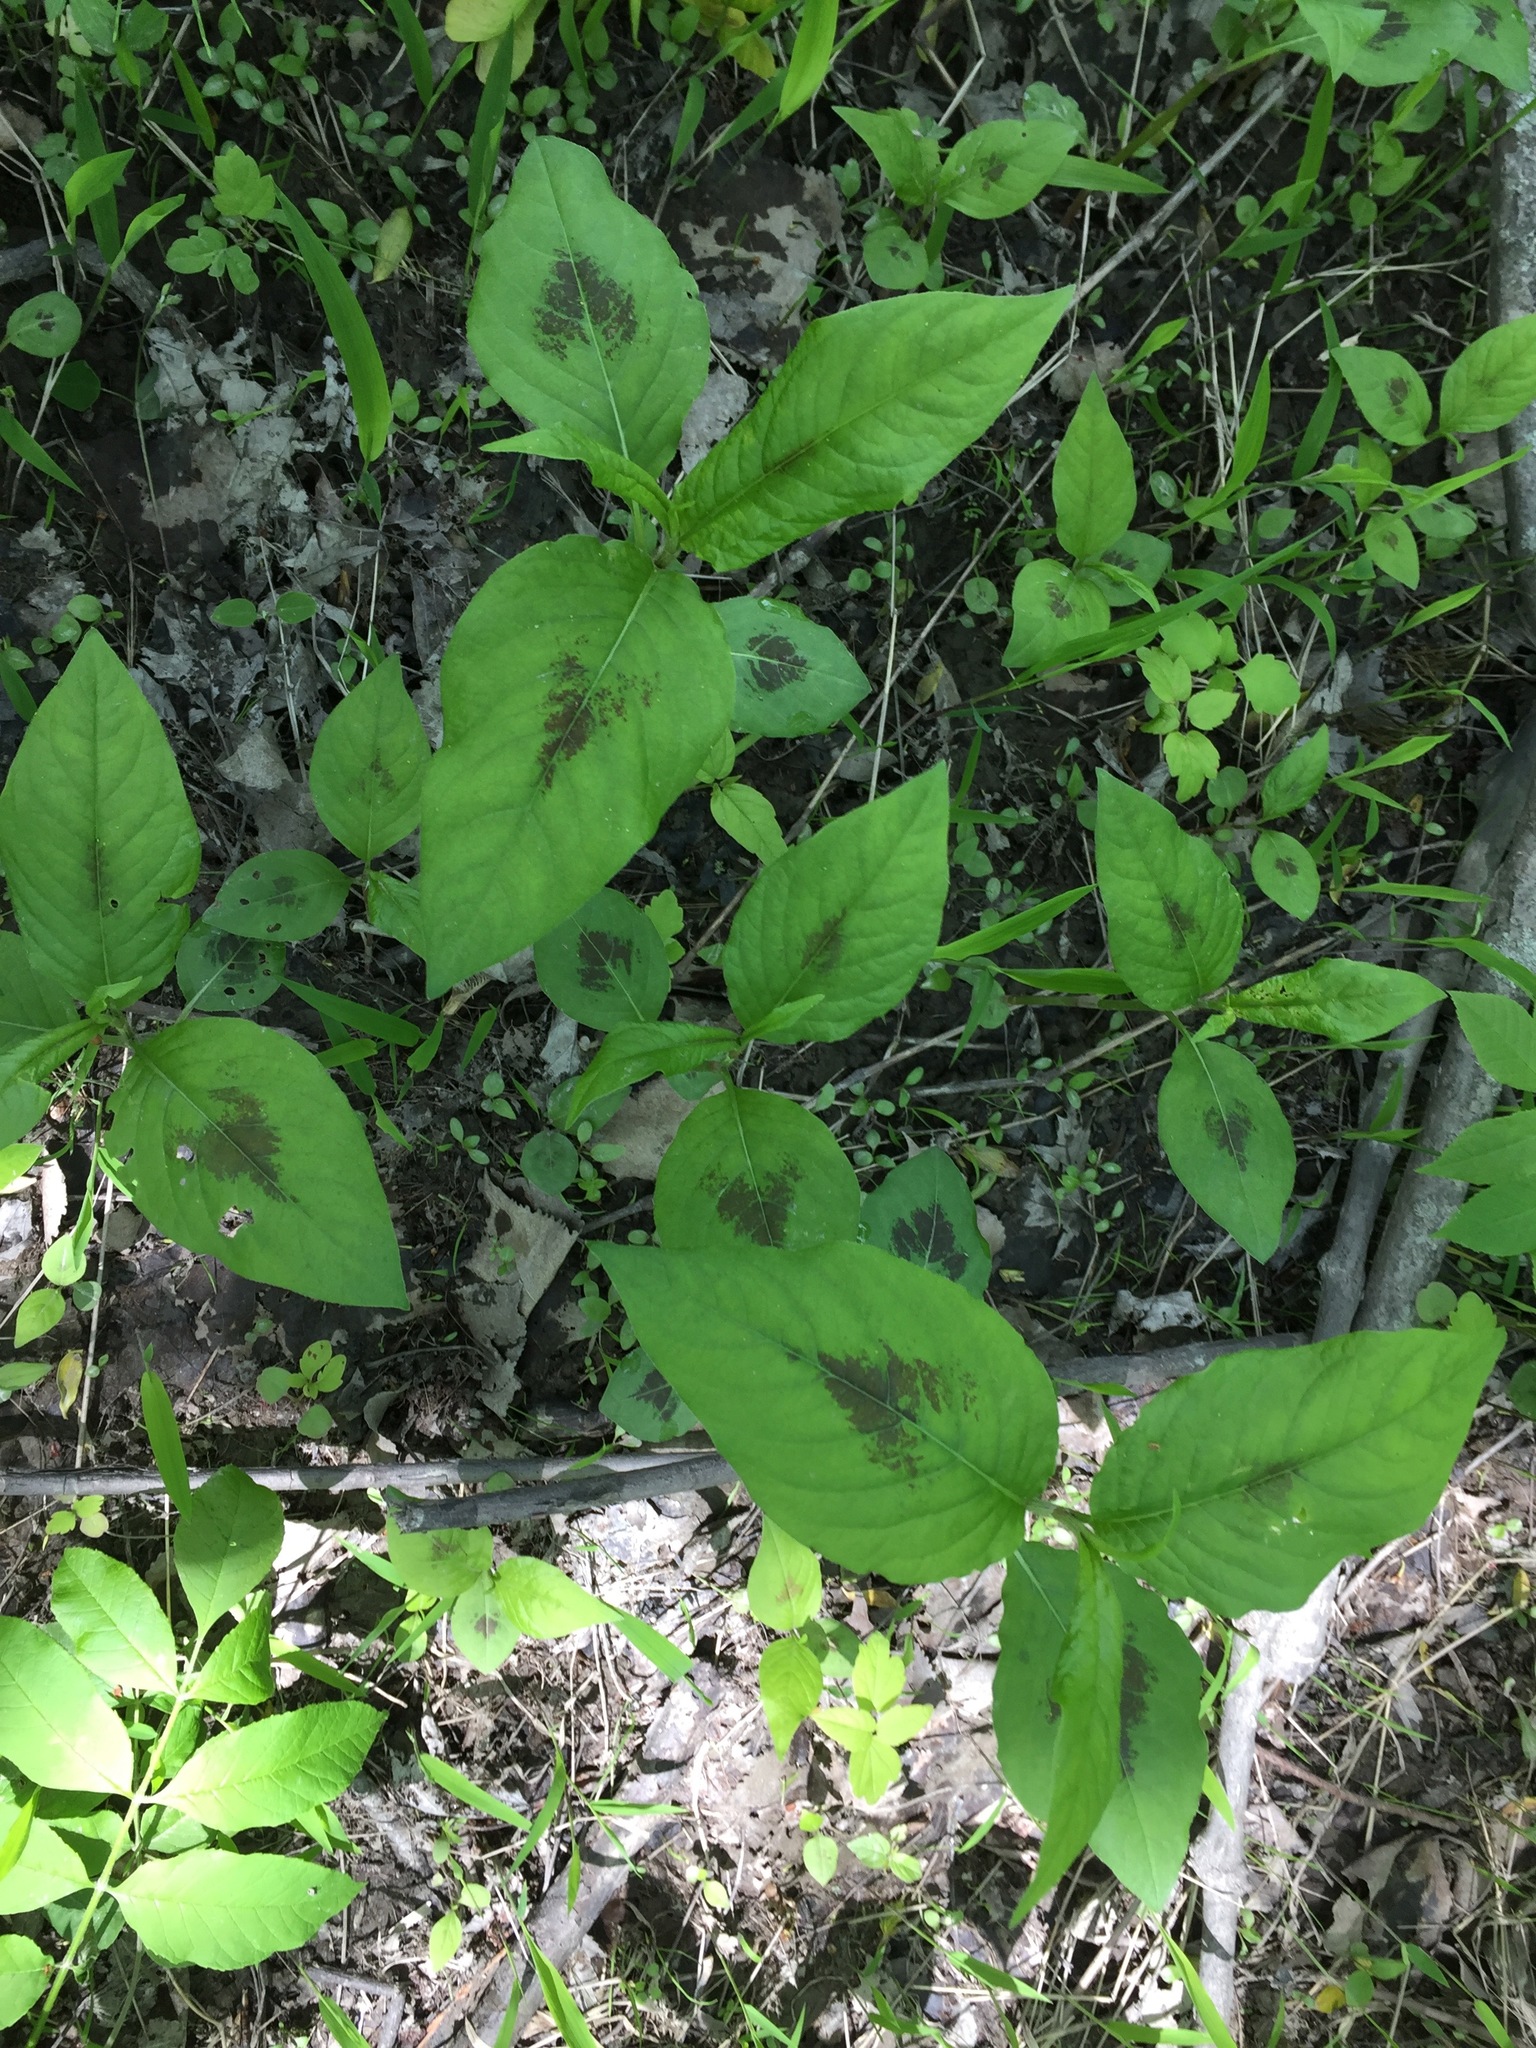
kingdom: Plantae
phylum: Tracheophyta
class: Magnoliopsida
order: Caryophyllales
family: Polygonaceae
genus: Persicaria
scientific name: Persicaria virginiana
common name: Jumpseed
